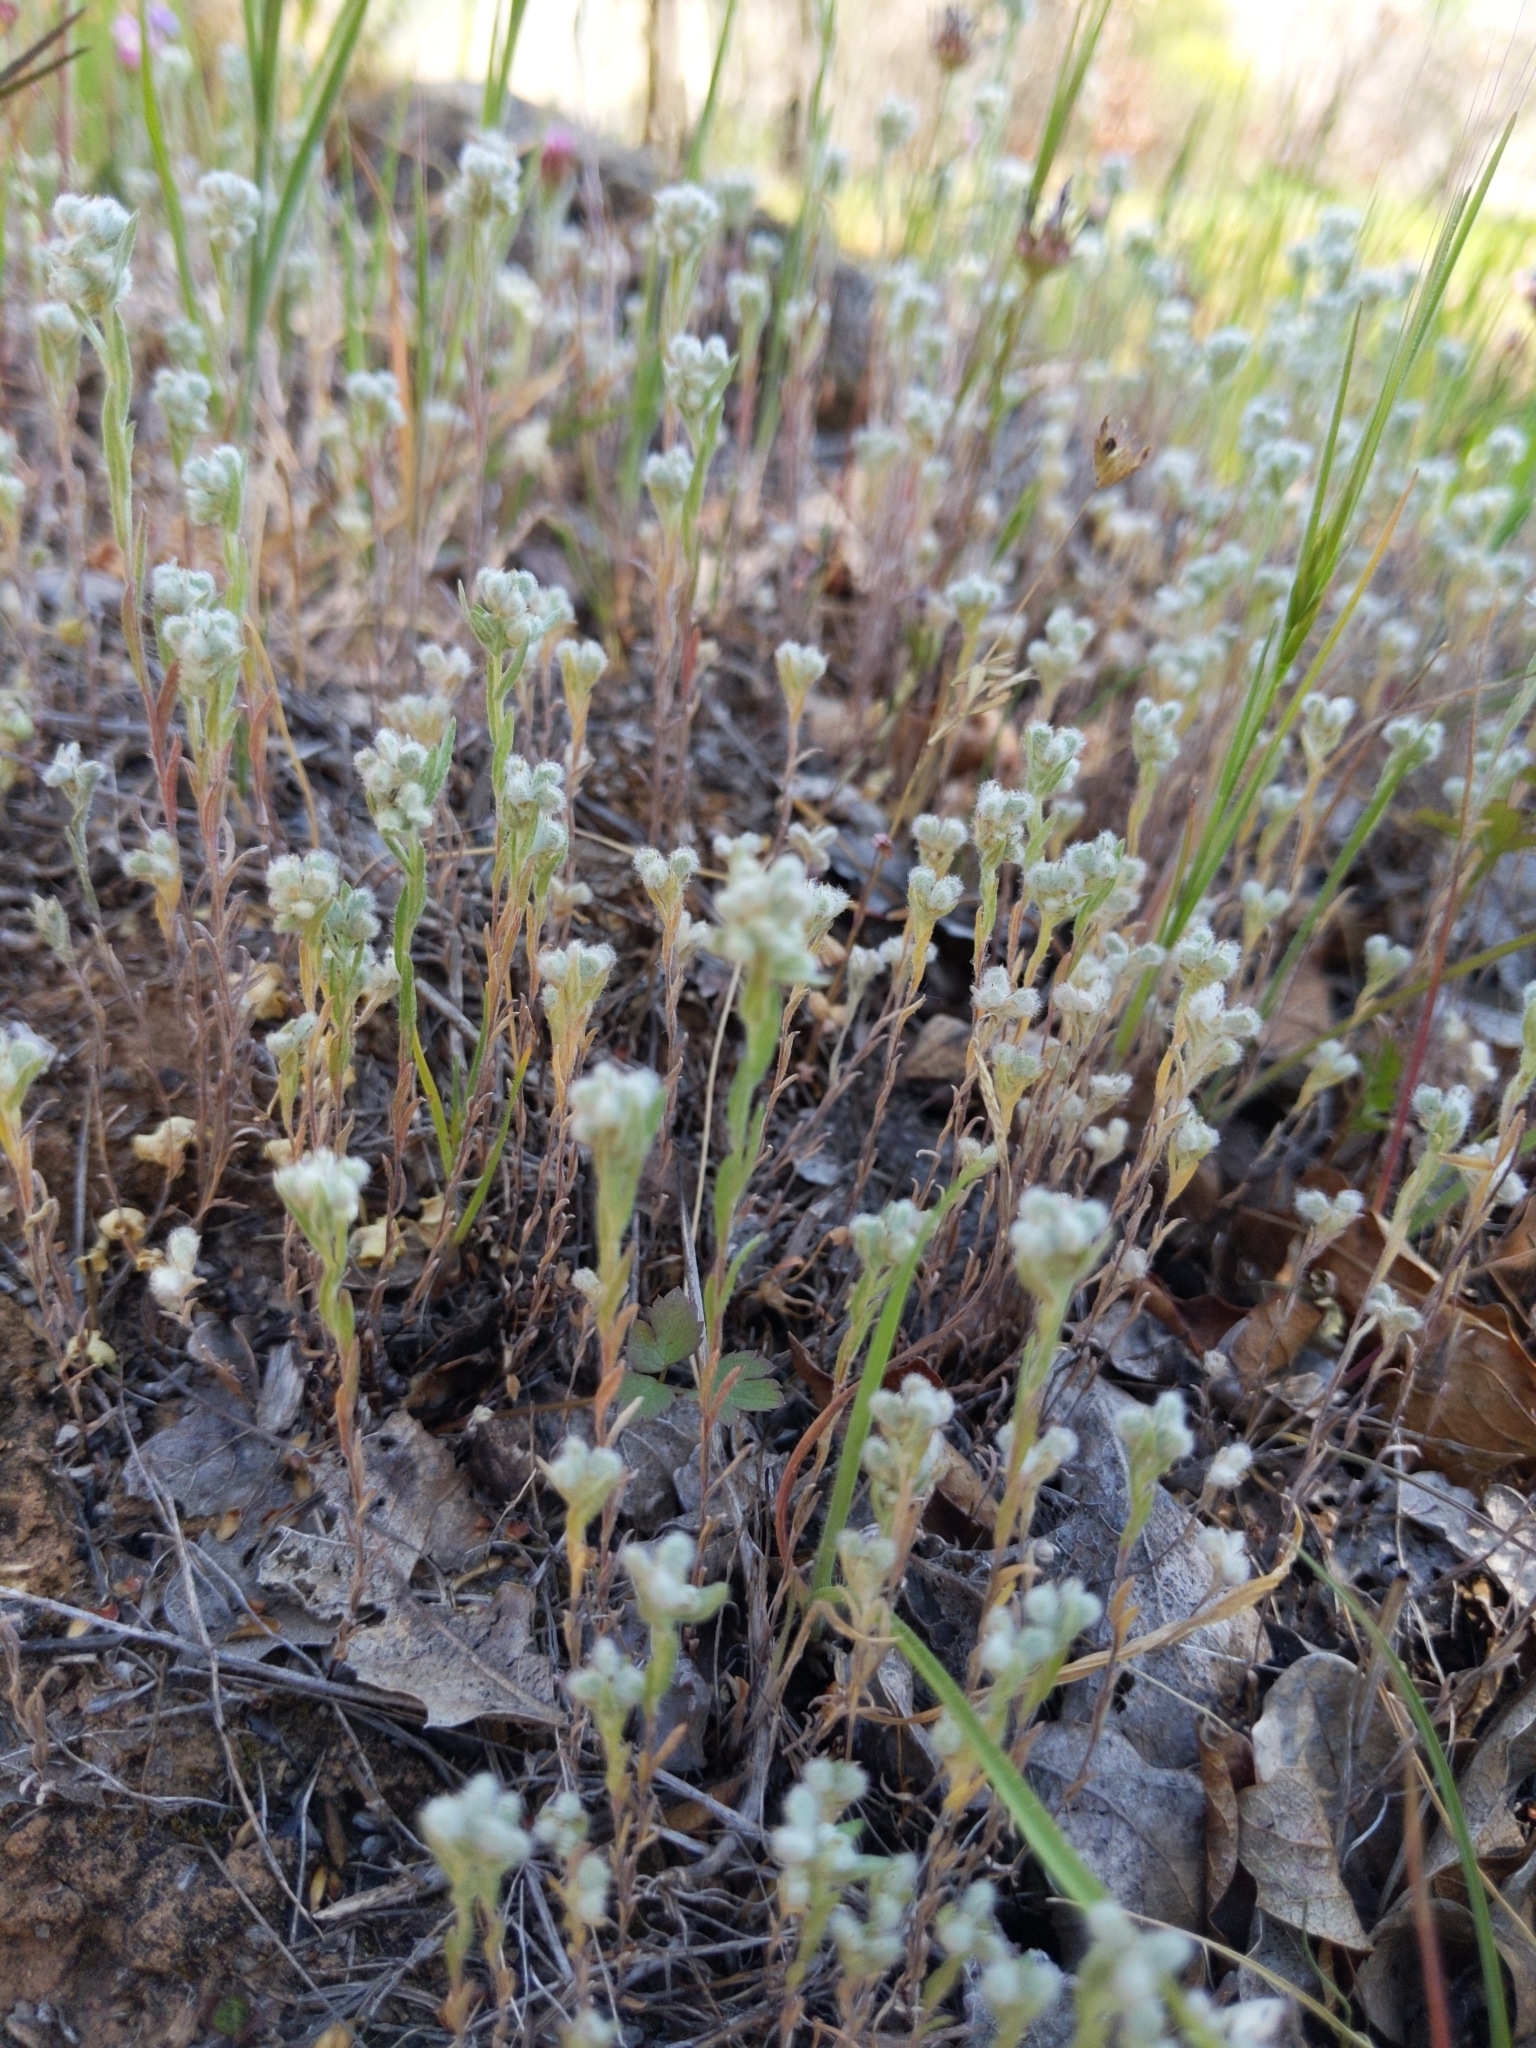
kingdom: Plantae
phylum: Tracheophyta
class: Magnoliopsida
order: Asterales
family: Asteraceae
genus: Bombycilaena
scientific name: Bombycilaena californica
